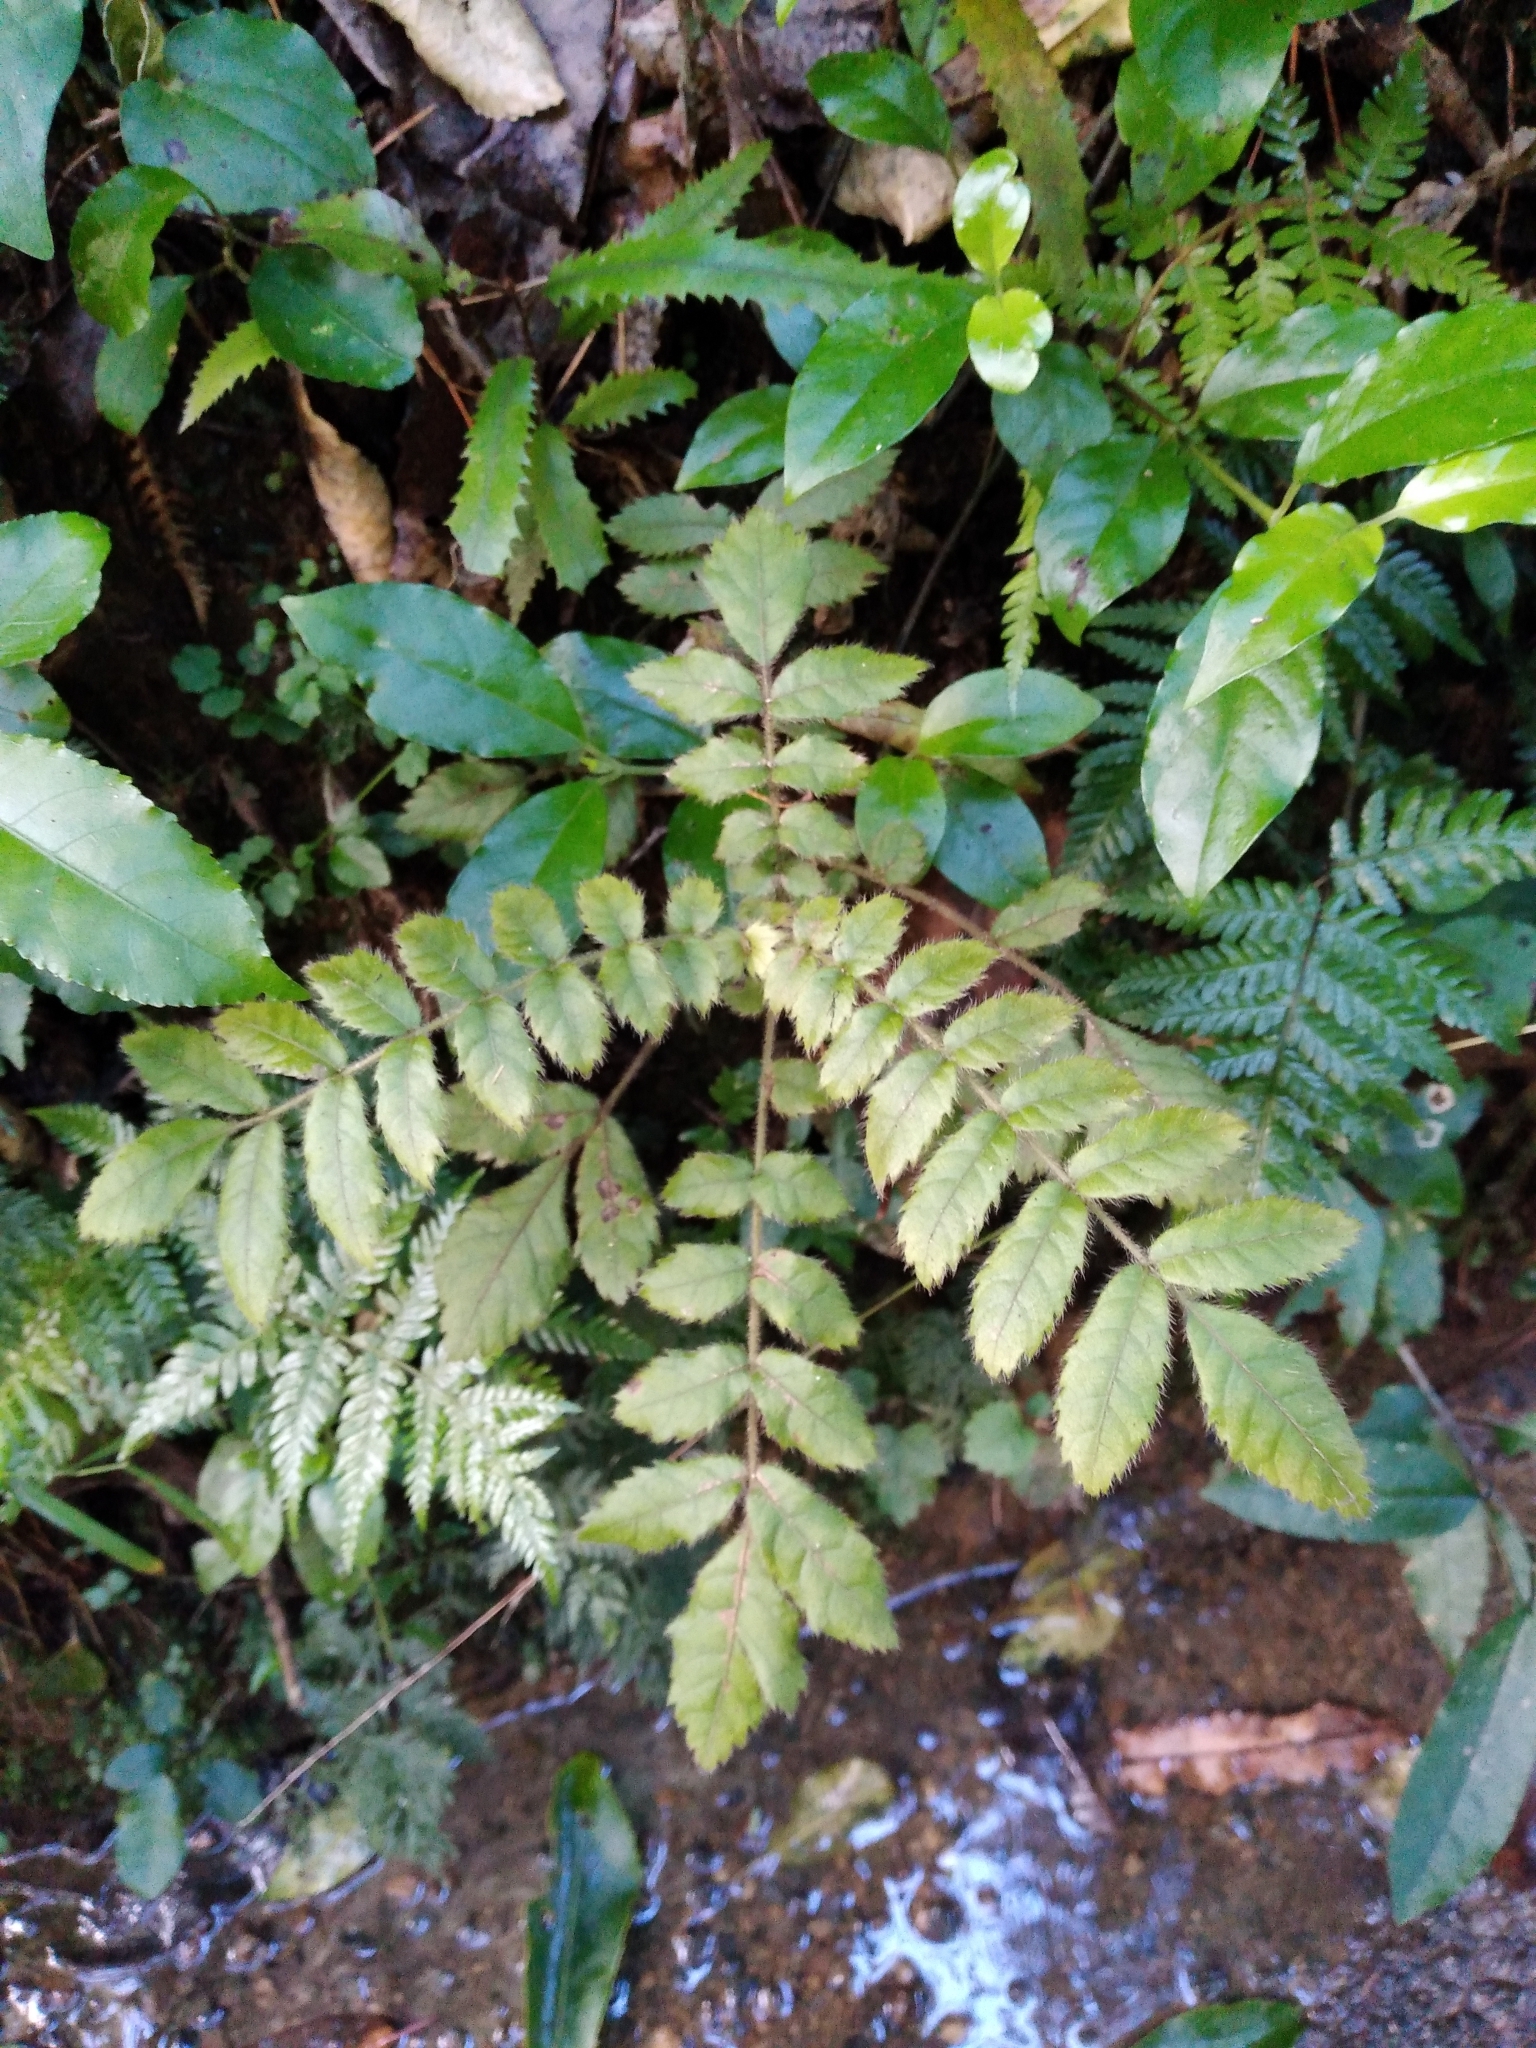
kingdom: Plantae
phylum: Tracheophyta
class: Magnoliopsida
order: Oxalidales
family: Cunoniaceae
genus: Ackama
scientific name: Ackama rosifolia
